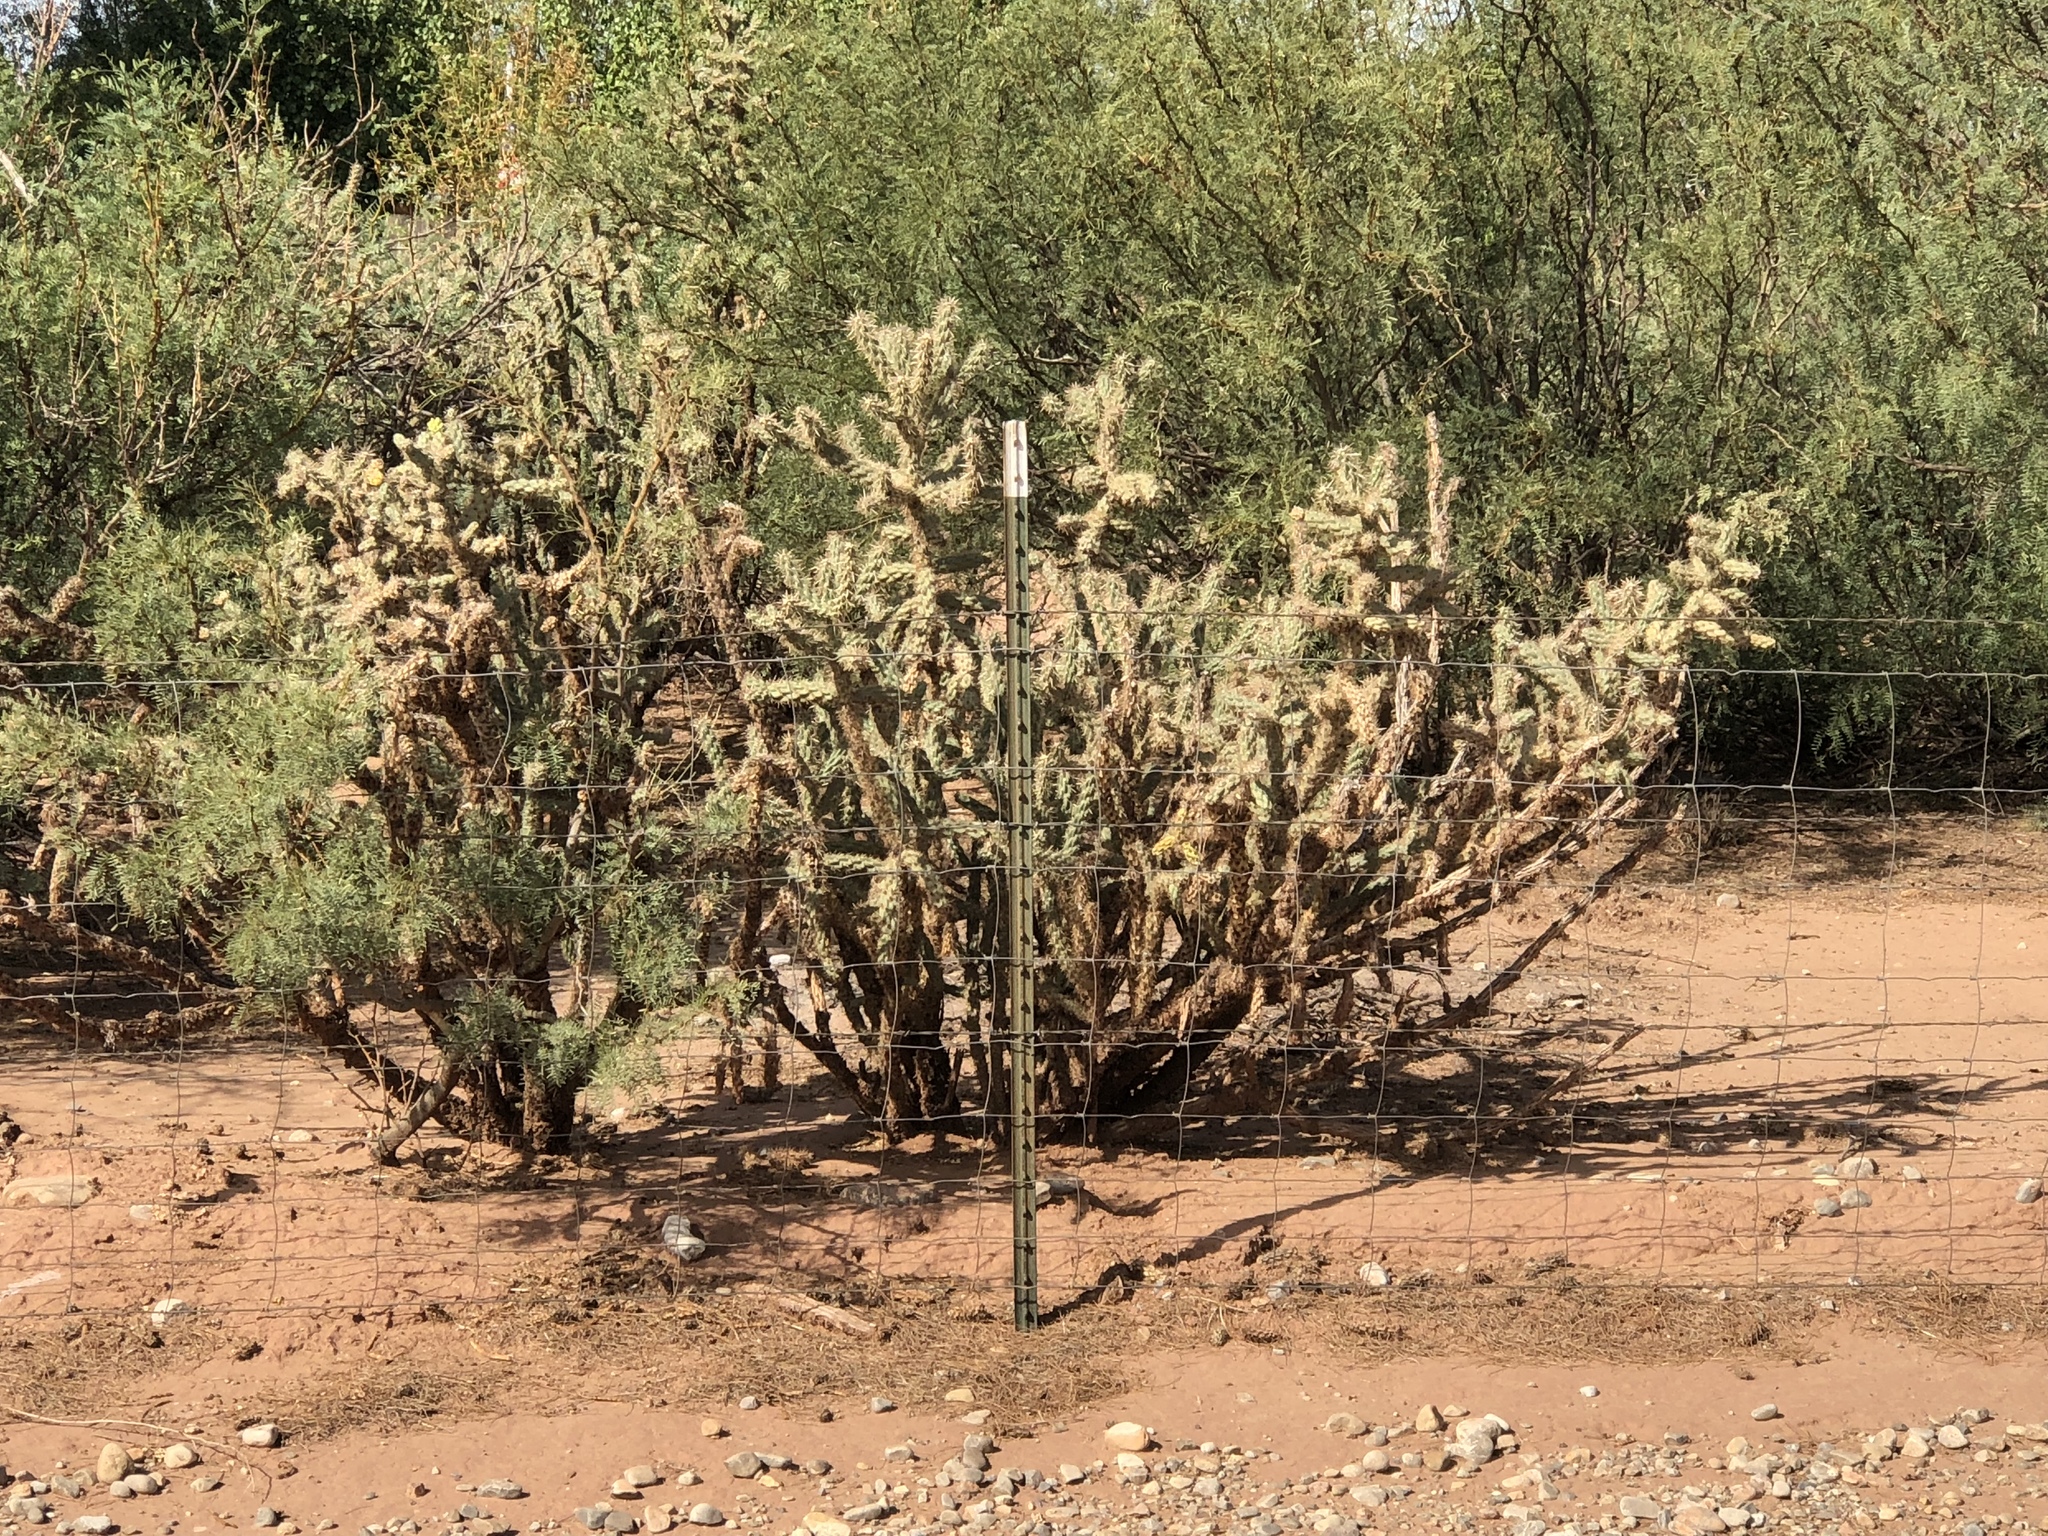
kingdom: Plantae
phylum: Tracheophyta
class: Magnoliopsida
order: Caryophyllales
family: Cactaceae
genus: Cylindropuntia
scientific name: Cylindropuntia imbricata
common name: Candelabrum cactus
